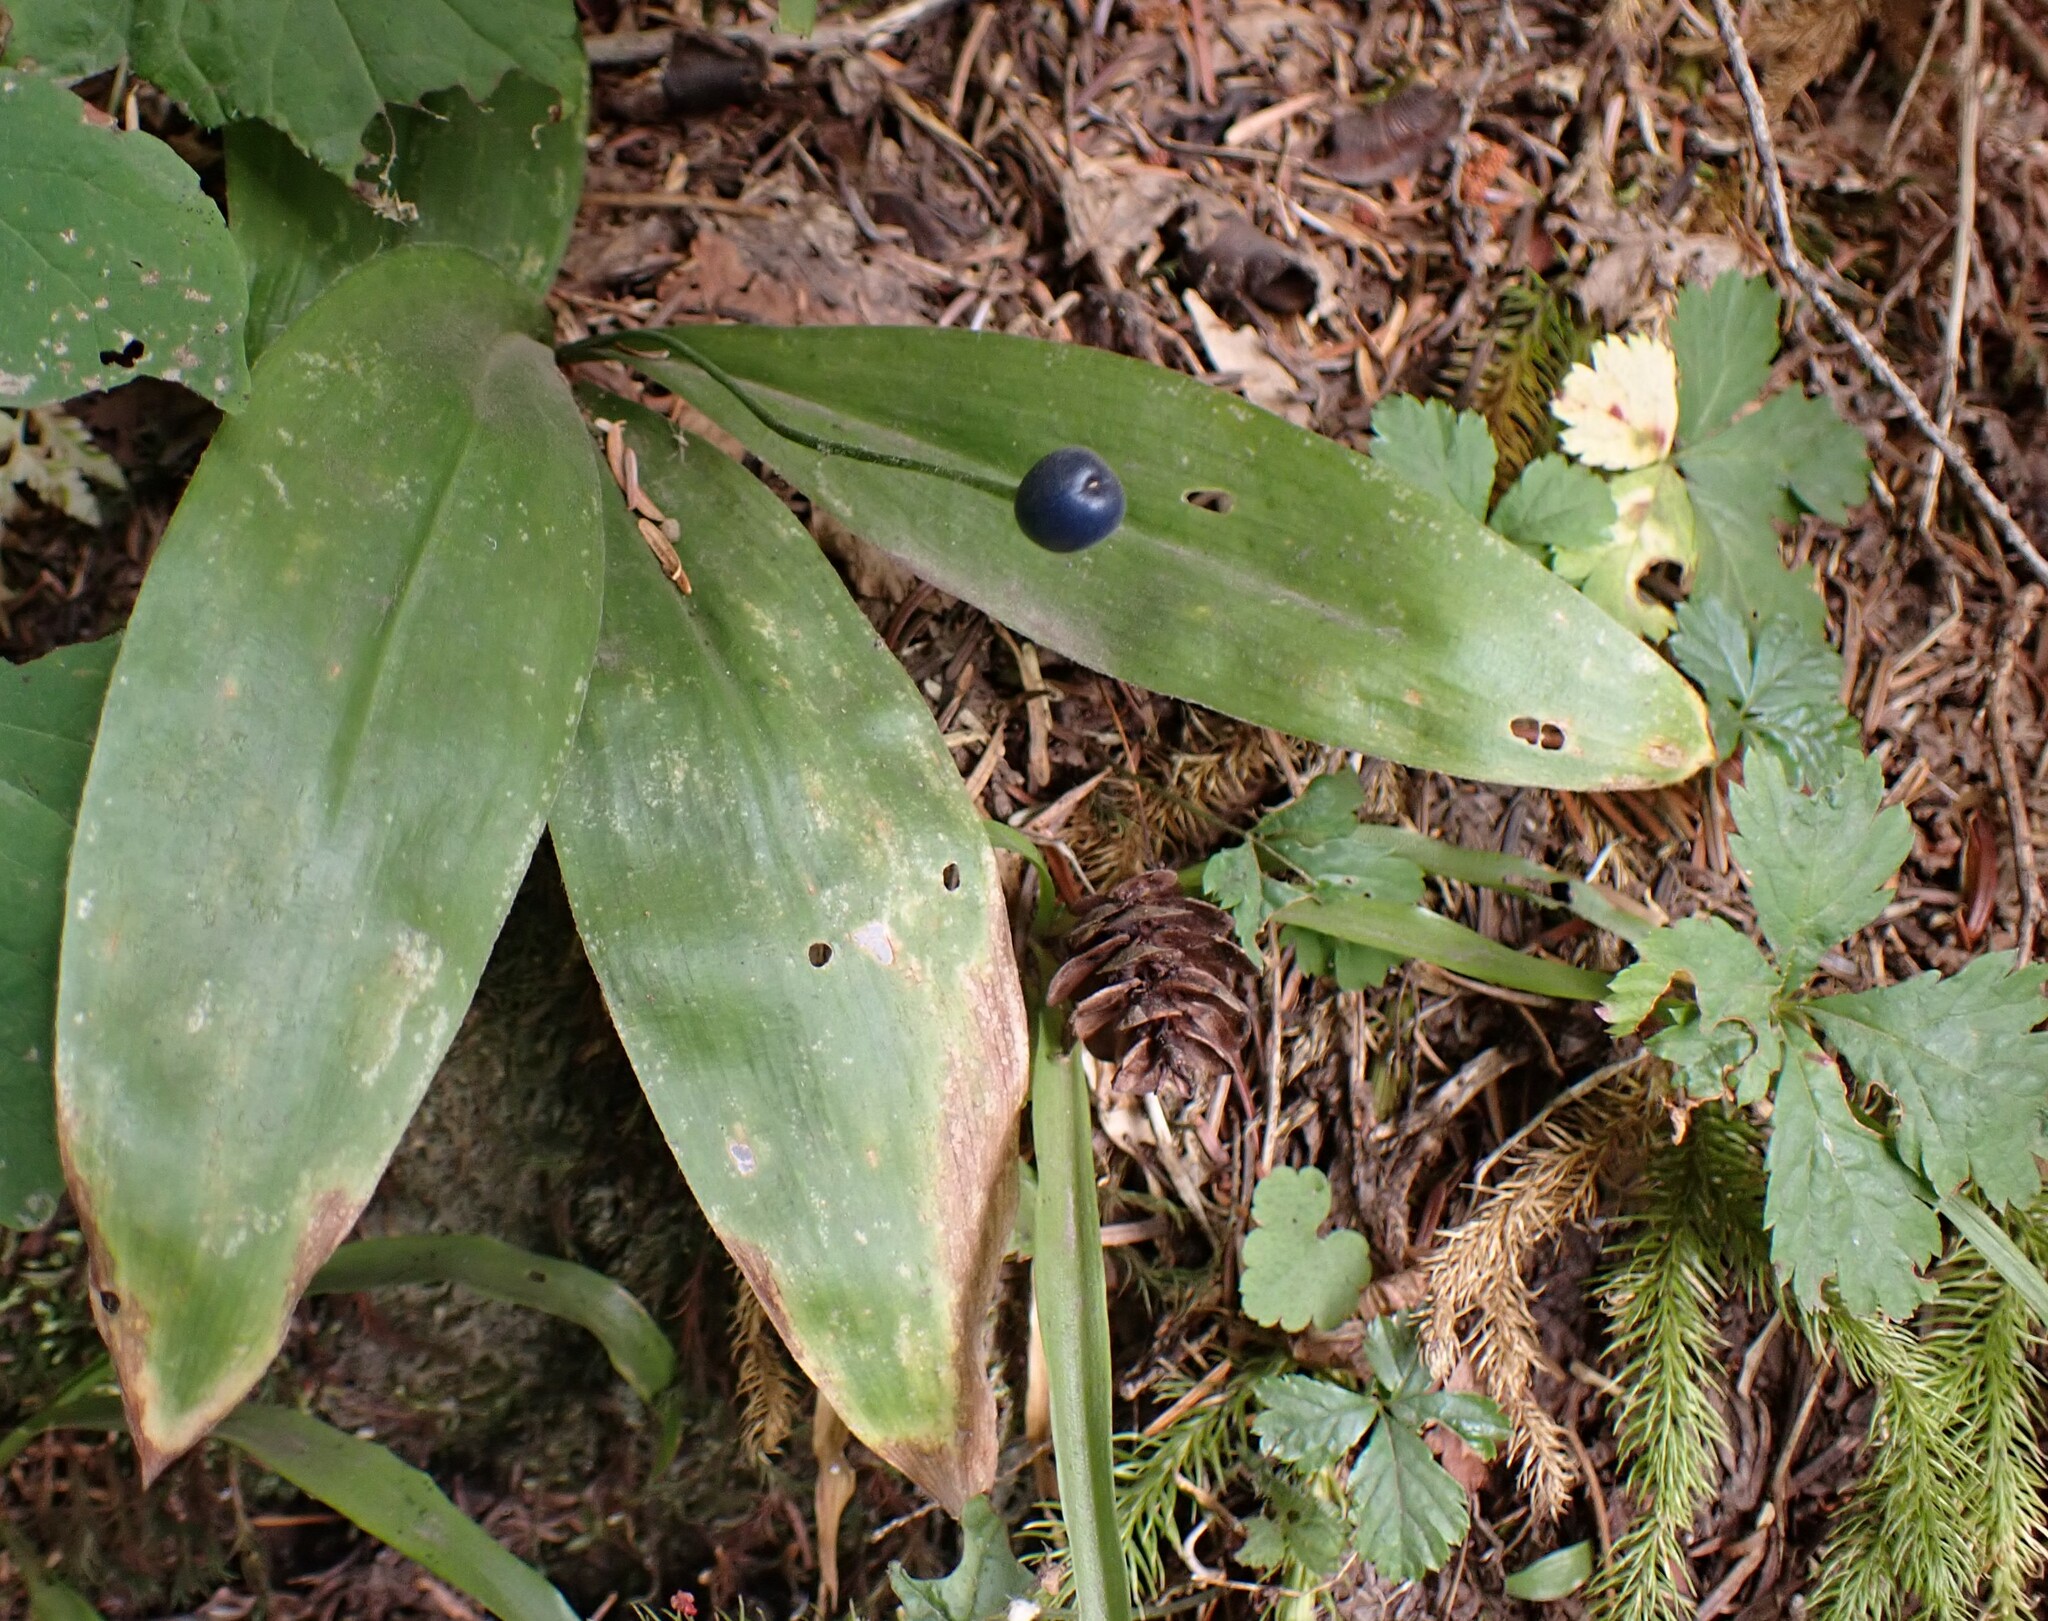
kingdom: Plantae
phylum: Tracheophyta
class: Liliopsida
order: Liliales
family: Liliaceae
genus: Clintonia
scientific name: Clintonia uniflora
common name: Queen's cup
